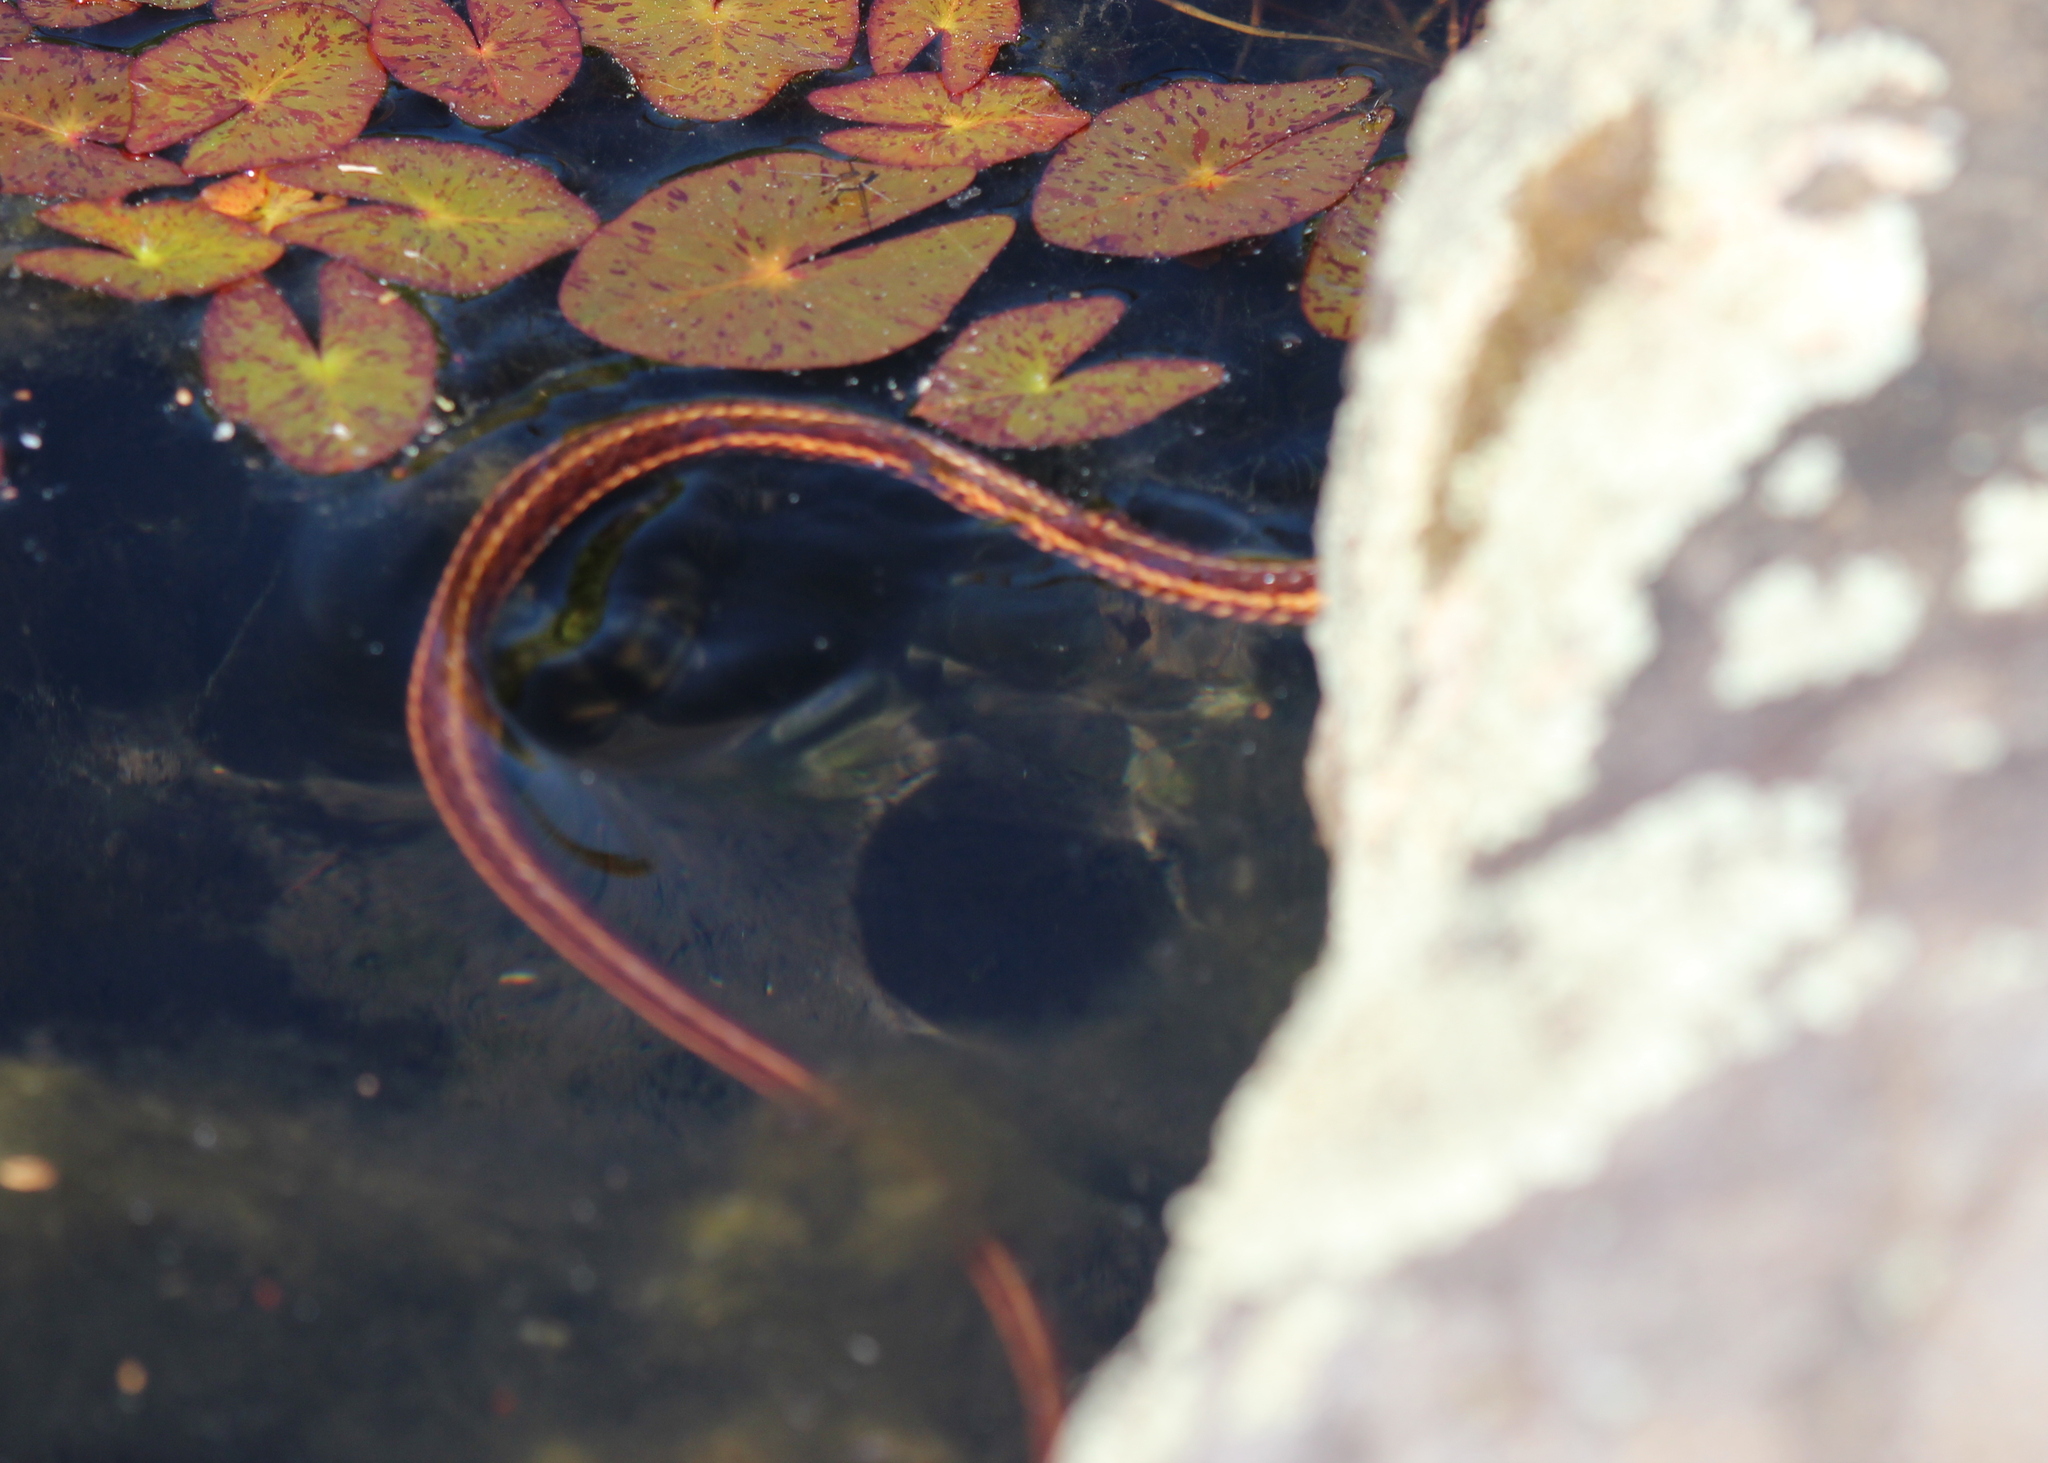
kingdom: Animalia
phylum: Chordata
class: Squamata
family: Colubridae
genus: Thamnophis
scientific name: Thamnophis sirtalis
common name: Common garter snake
